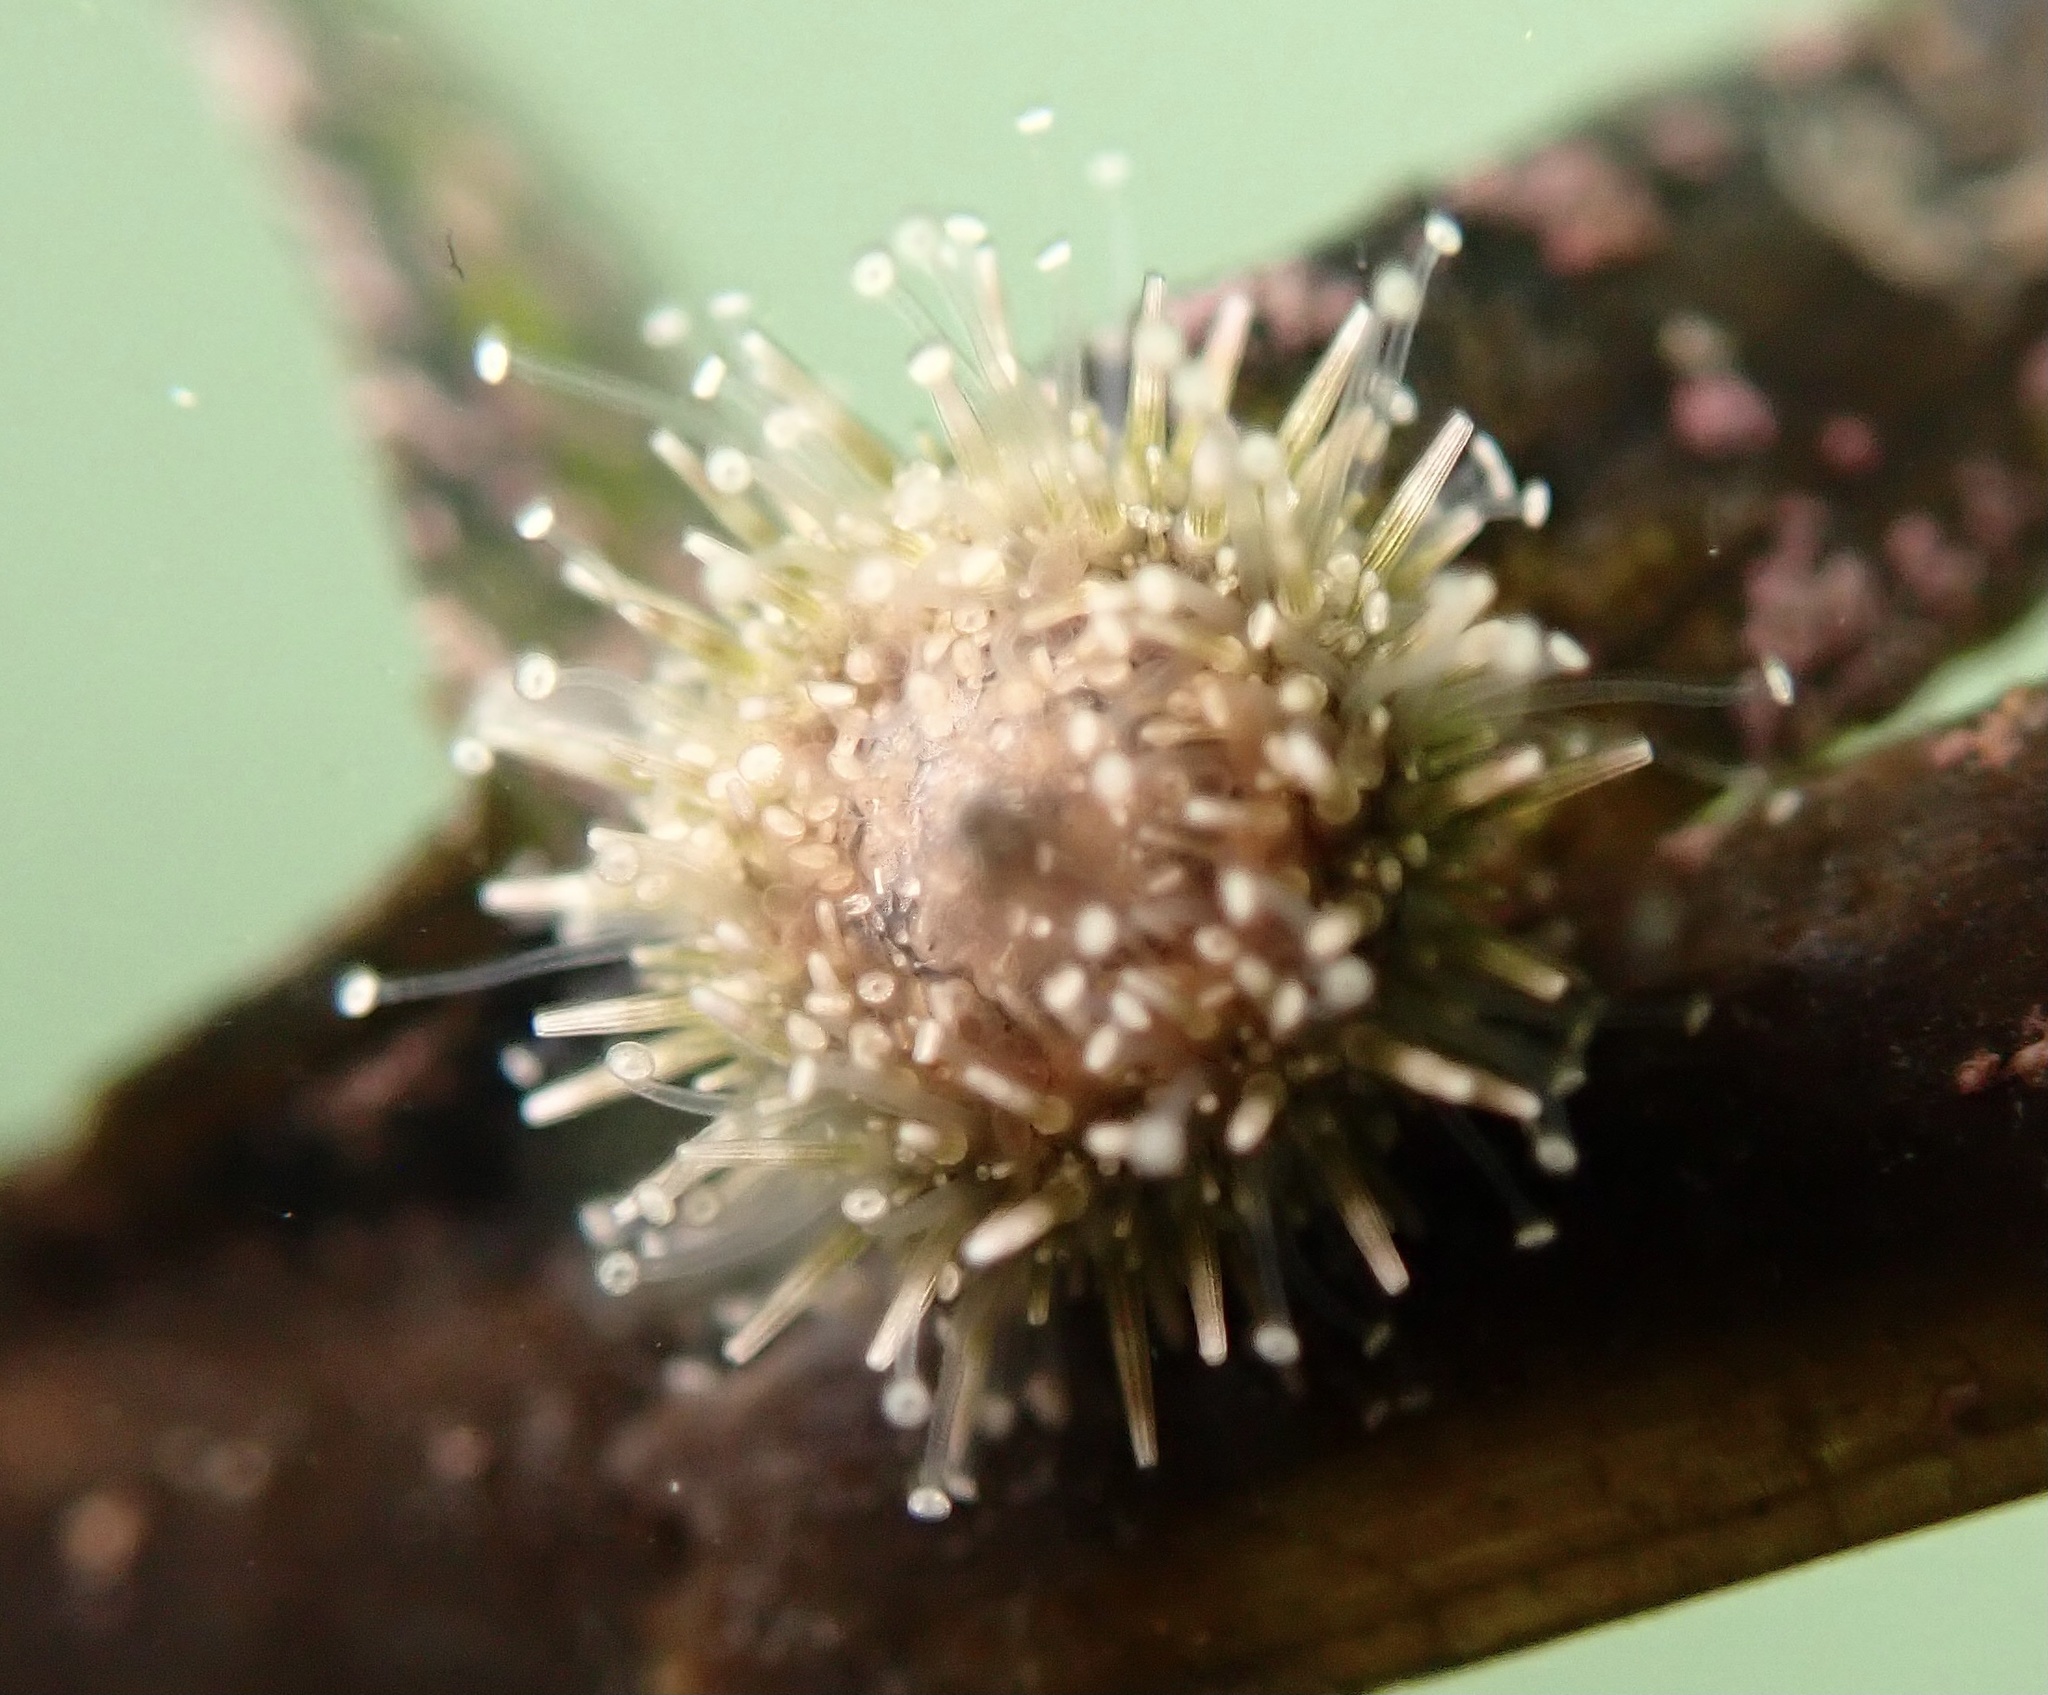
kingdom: Animalia
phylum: Echinodermata
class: Echinoidea
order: Camarodonta
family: Strongylocentrotidae
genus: Strongylocentrotus
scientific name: Strongylocentrotus purpuratus
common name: Purple sea urchin
